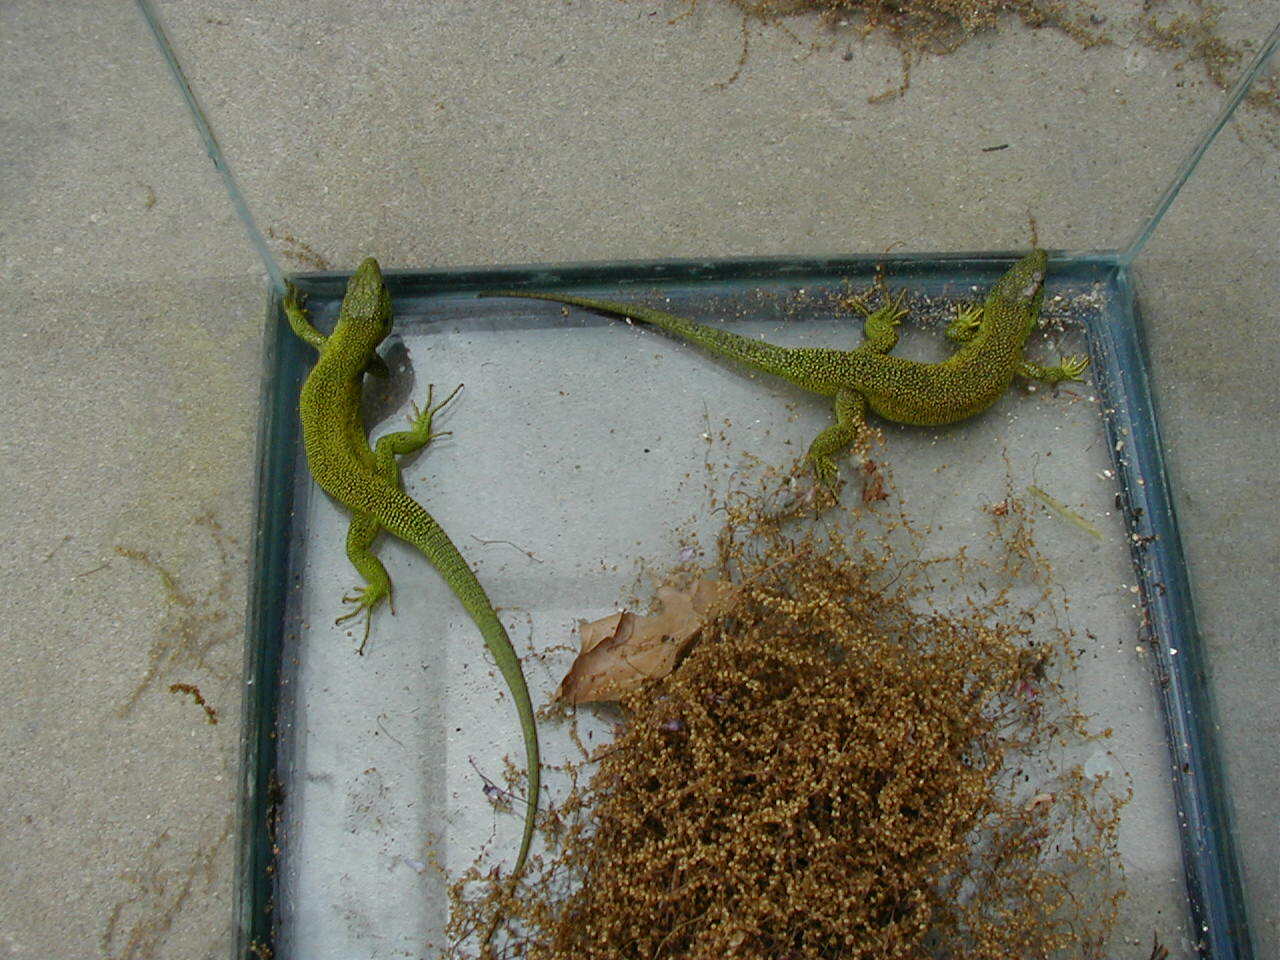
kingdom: Animalia
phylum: Chordata
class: Squamata
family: Lacertidae
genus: Lacerta
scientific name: Lacerta bilineata
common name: Western green lizard
